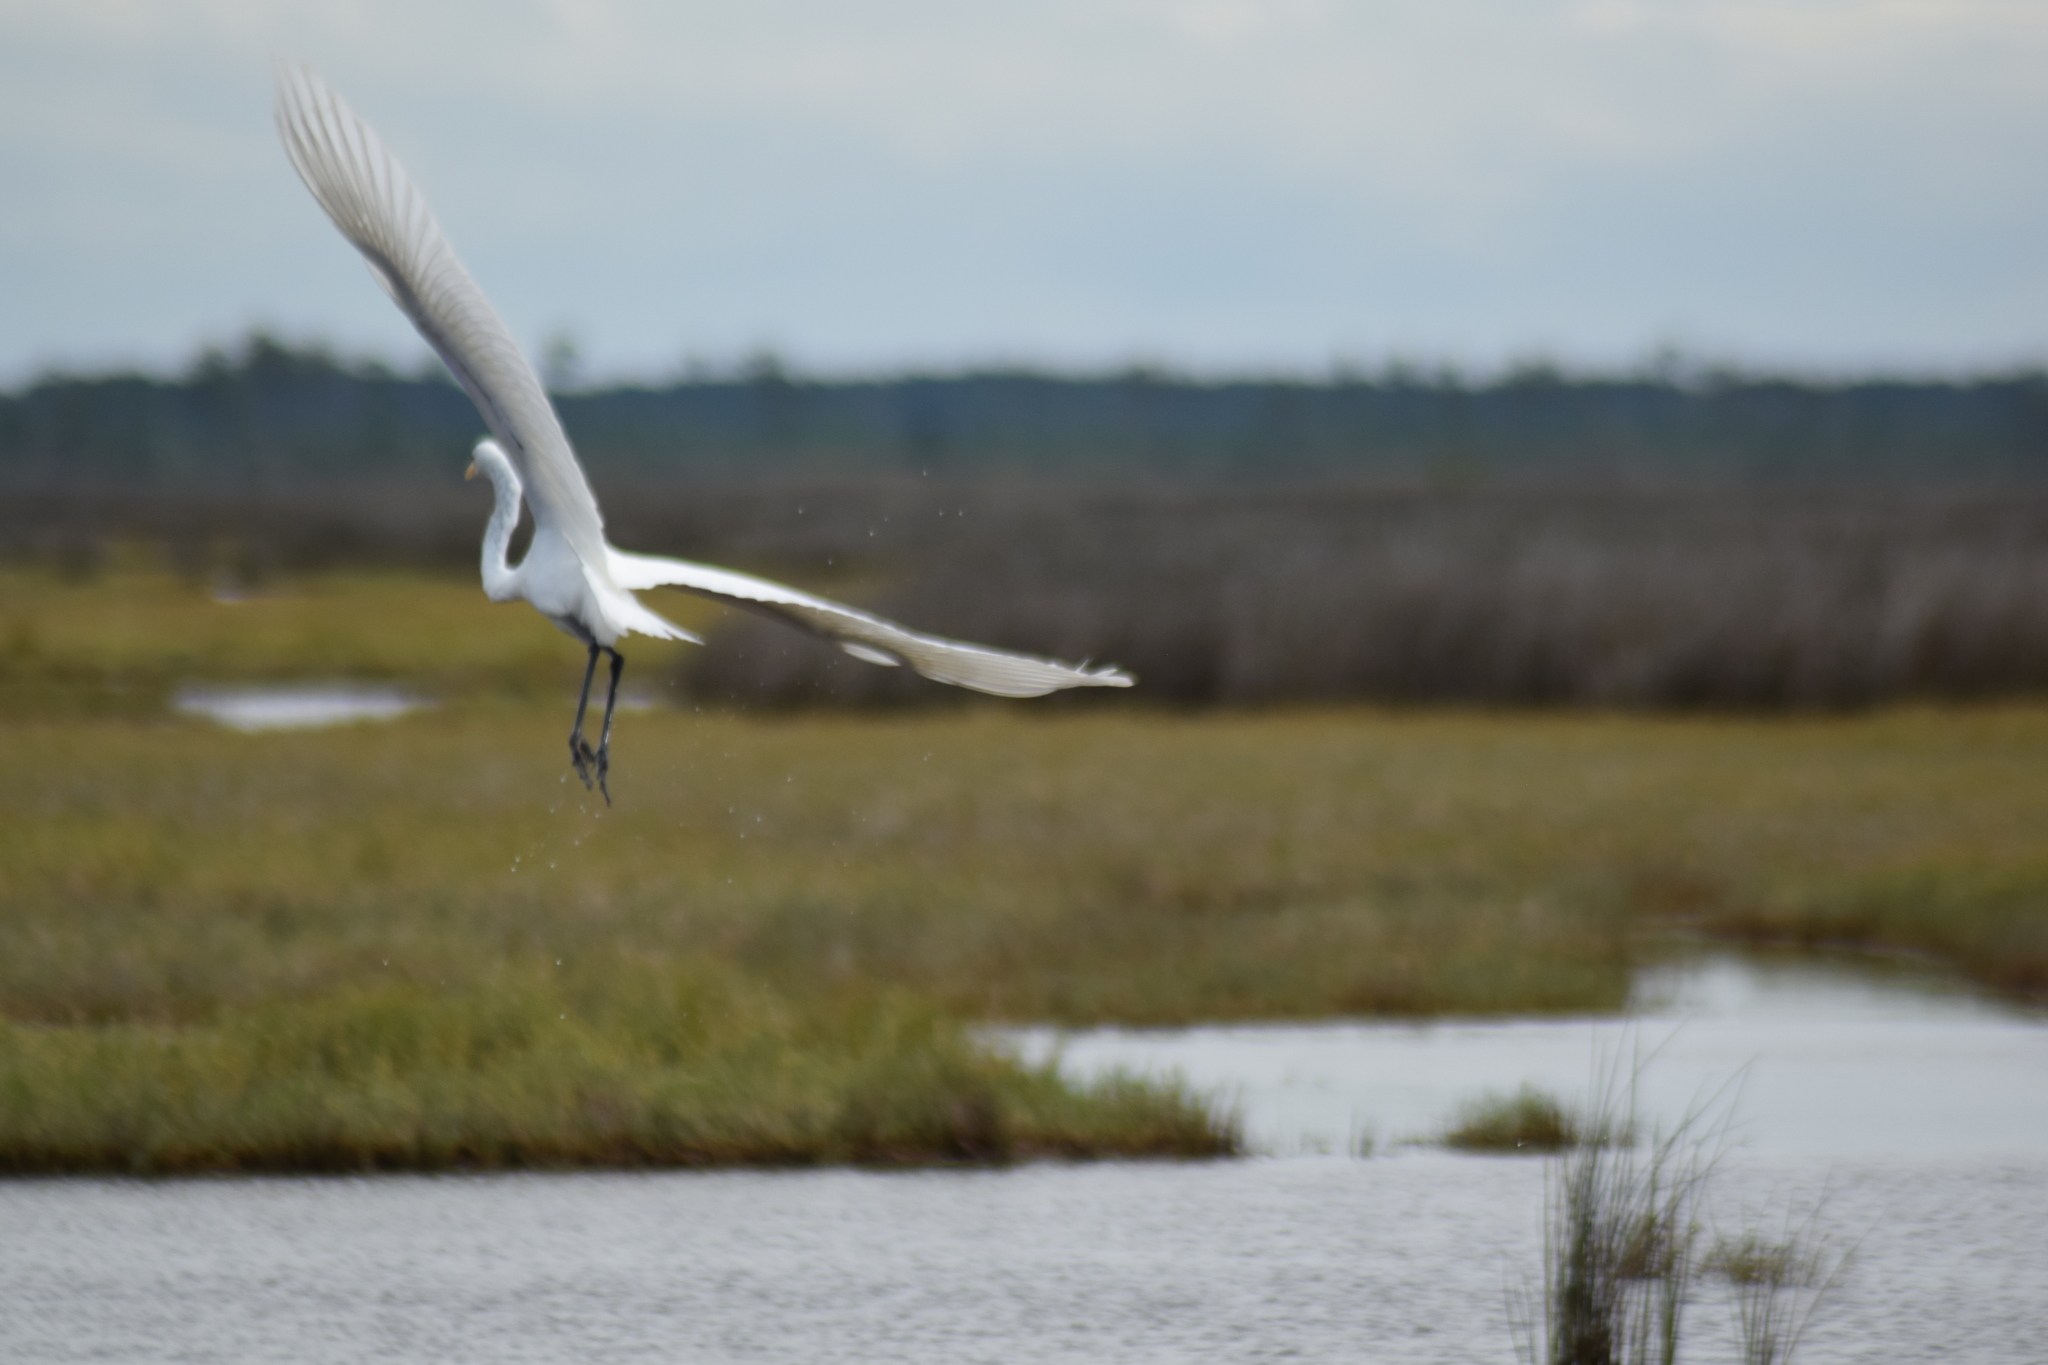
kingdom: Animalia
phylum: Chordata
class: Aves
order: Pelecaniformes
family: Ardeidae
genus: Ardea
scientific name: Ardea alba
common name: Great egret
